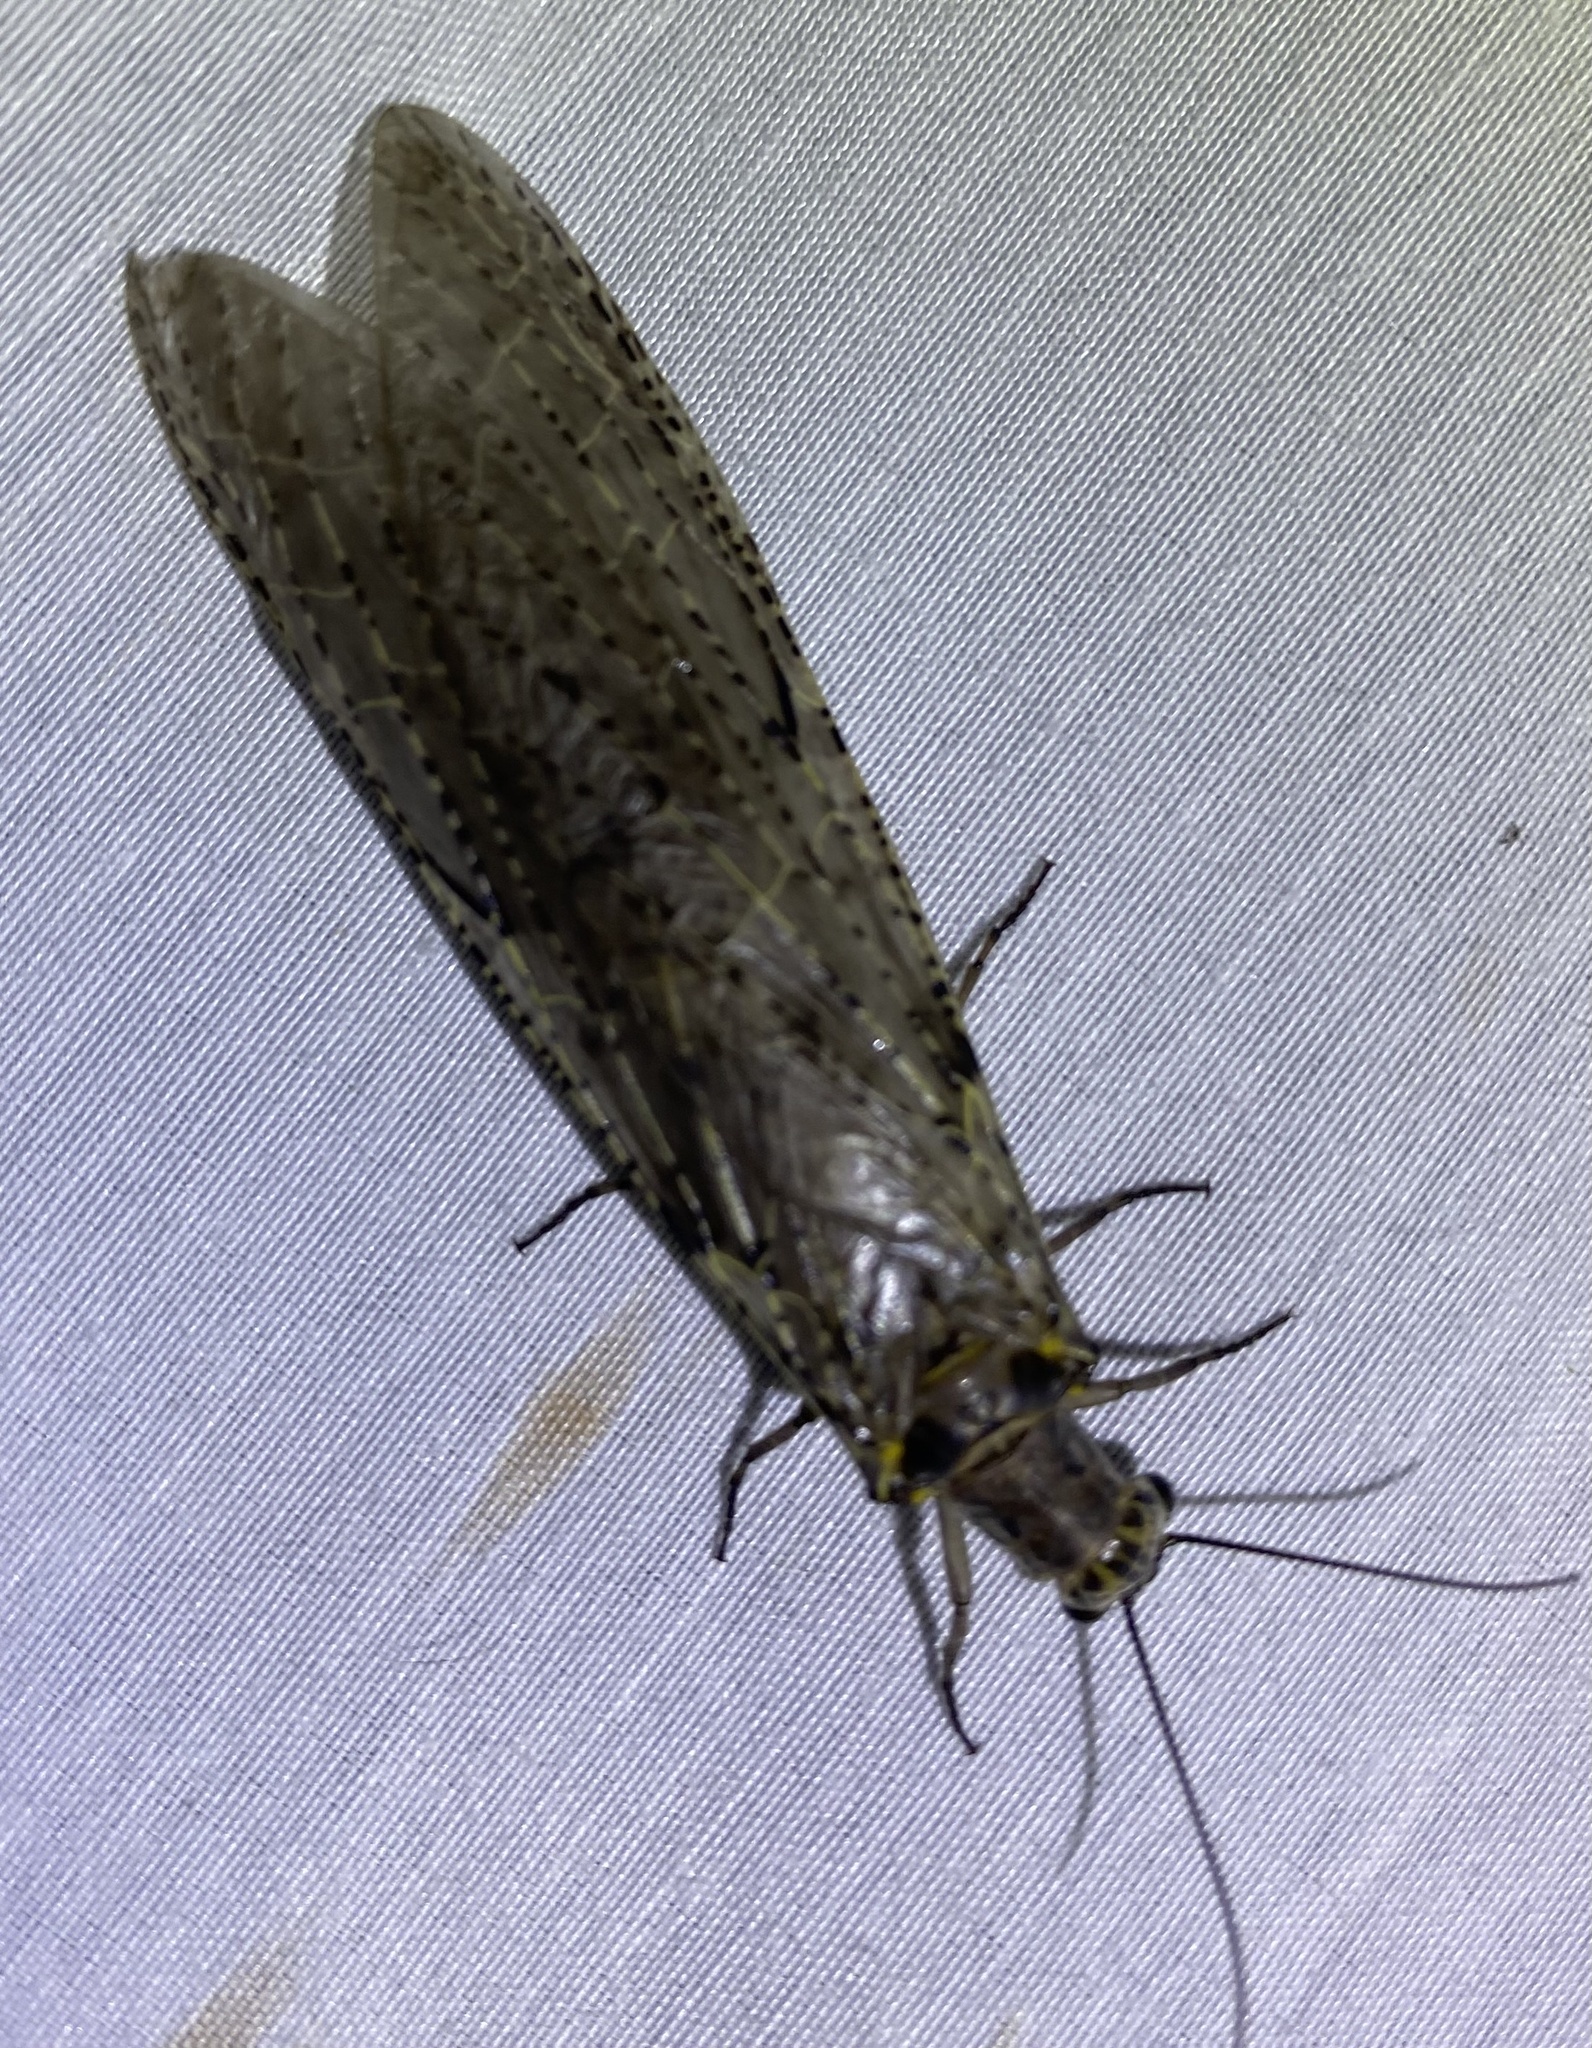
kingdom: Animalia
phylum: Arthropoda
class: Insecta
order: Megaloptera
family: Corydalidae
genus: Chauliodes
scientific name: Chauliodes rastricornis
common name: Spring fishfly
